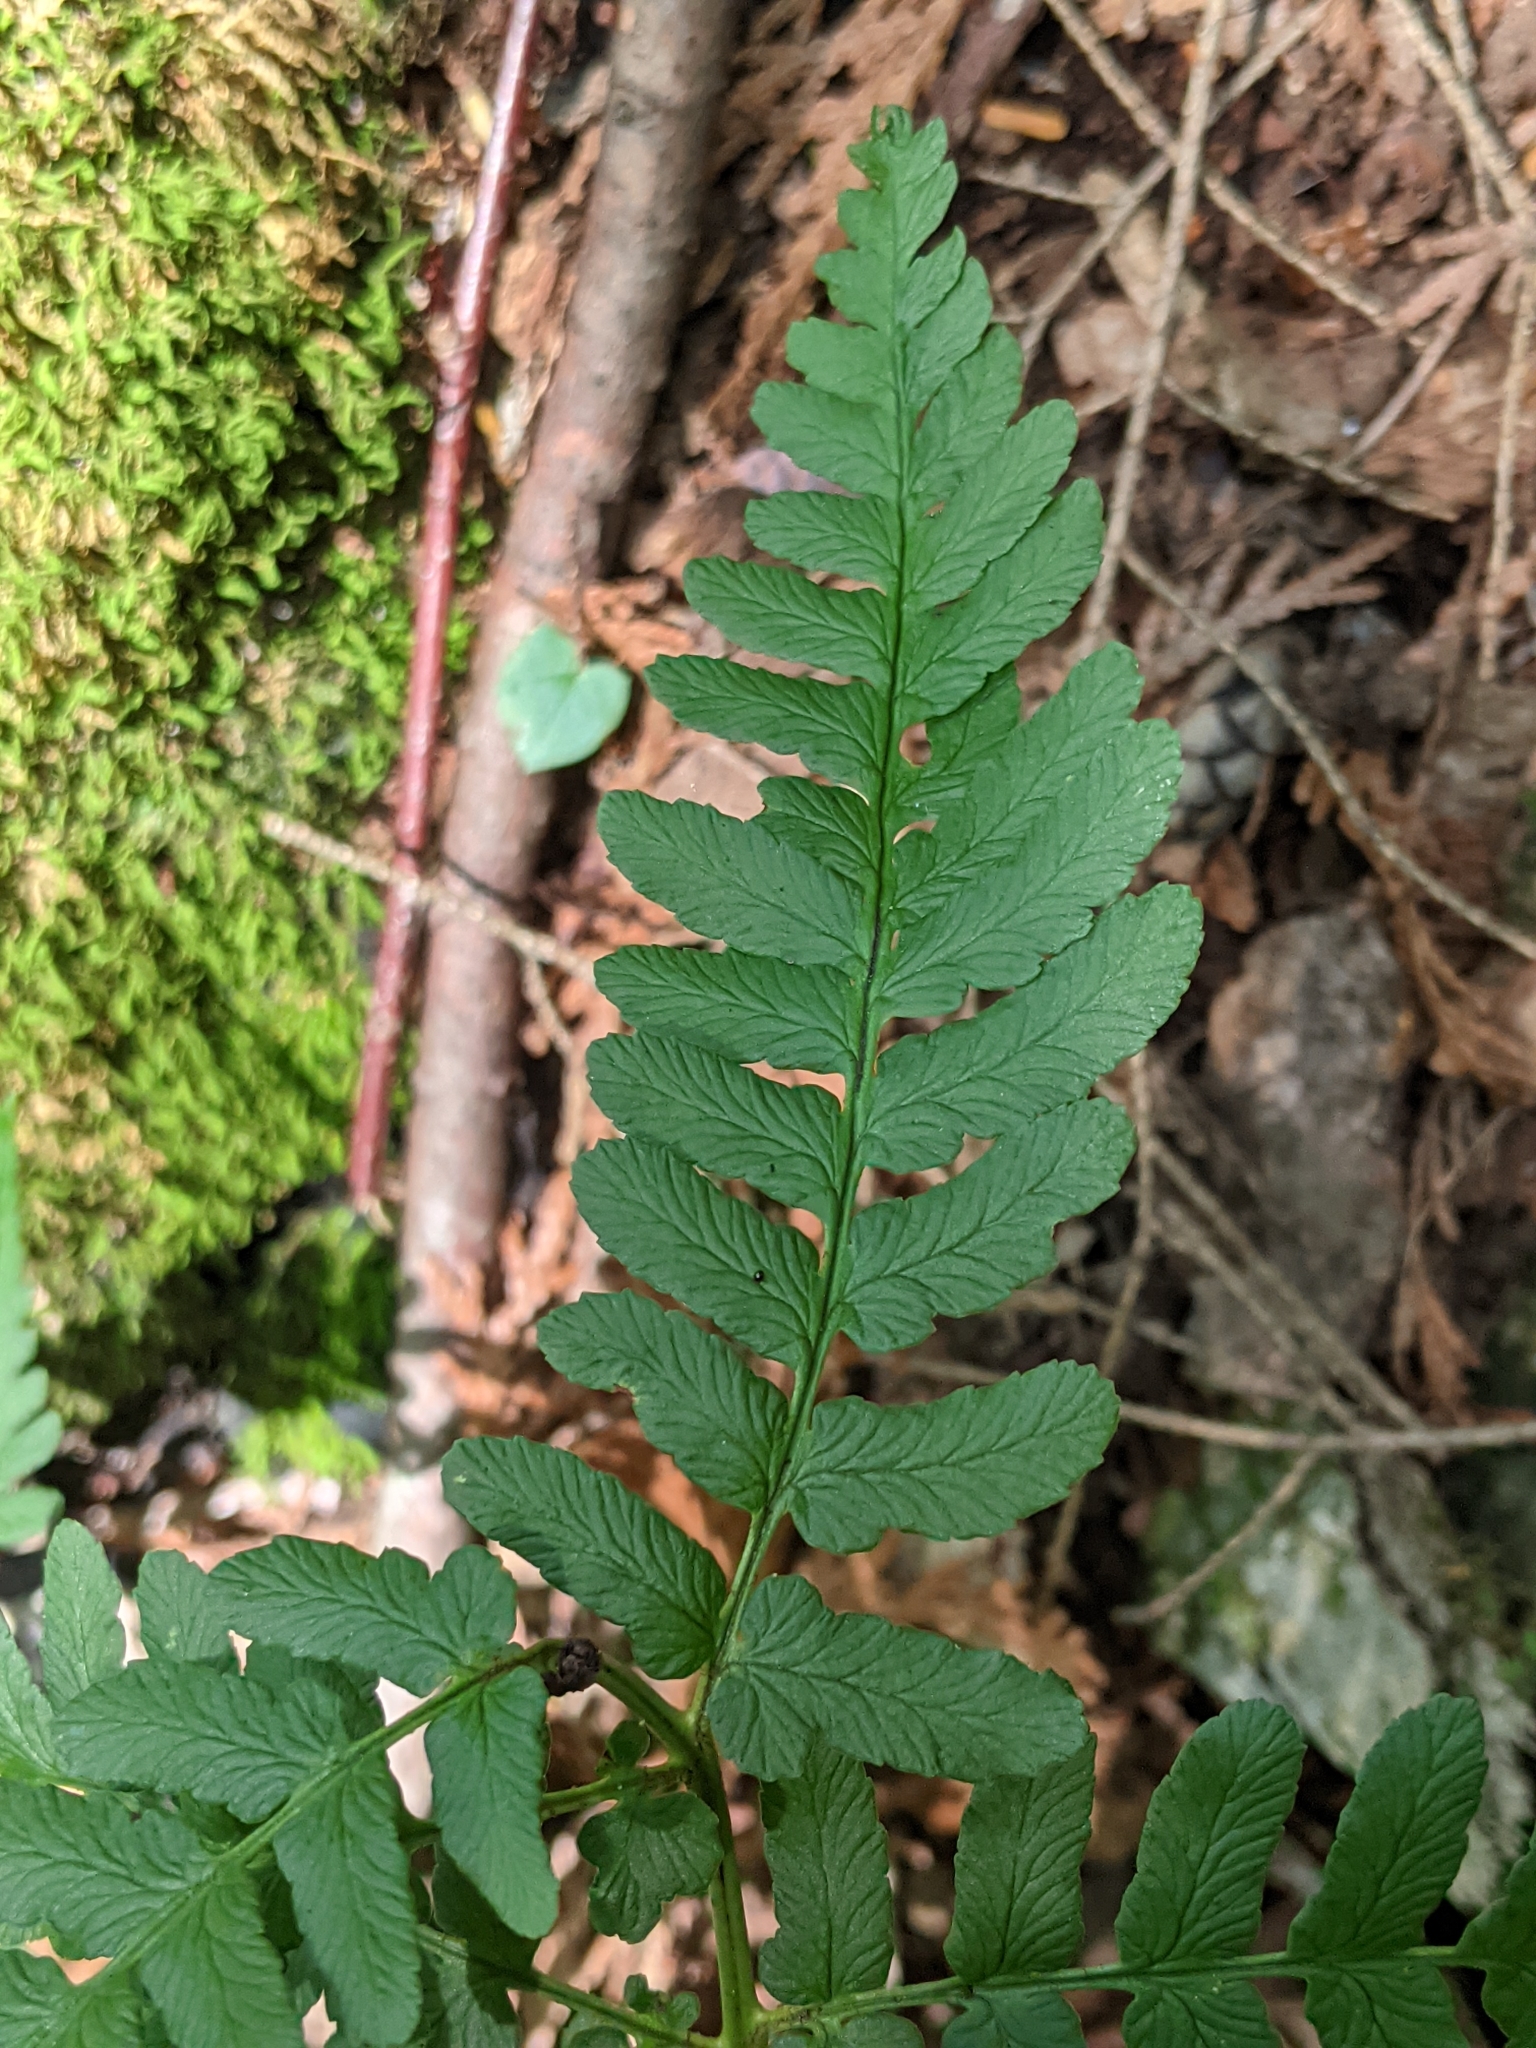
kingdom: Plantae
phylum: Tracheophyta
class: Polypodiopsida
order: Polypodiales
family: Dryopteridaceae
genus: Dryopteris
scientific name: Dryopteris marginalis
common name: Marginal wood fern
